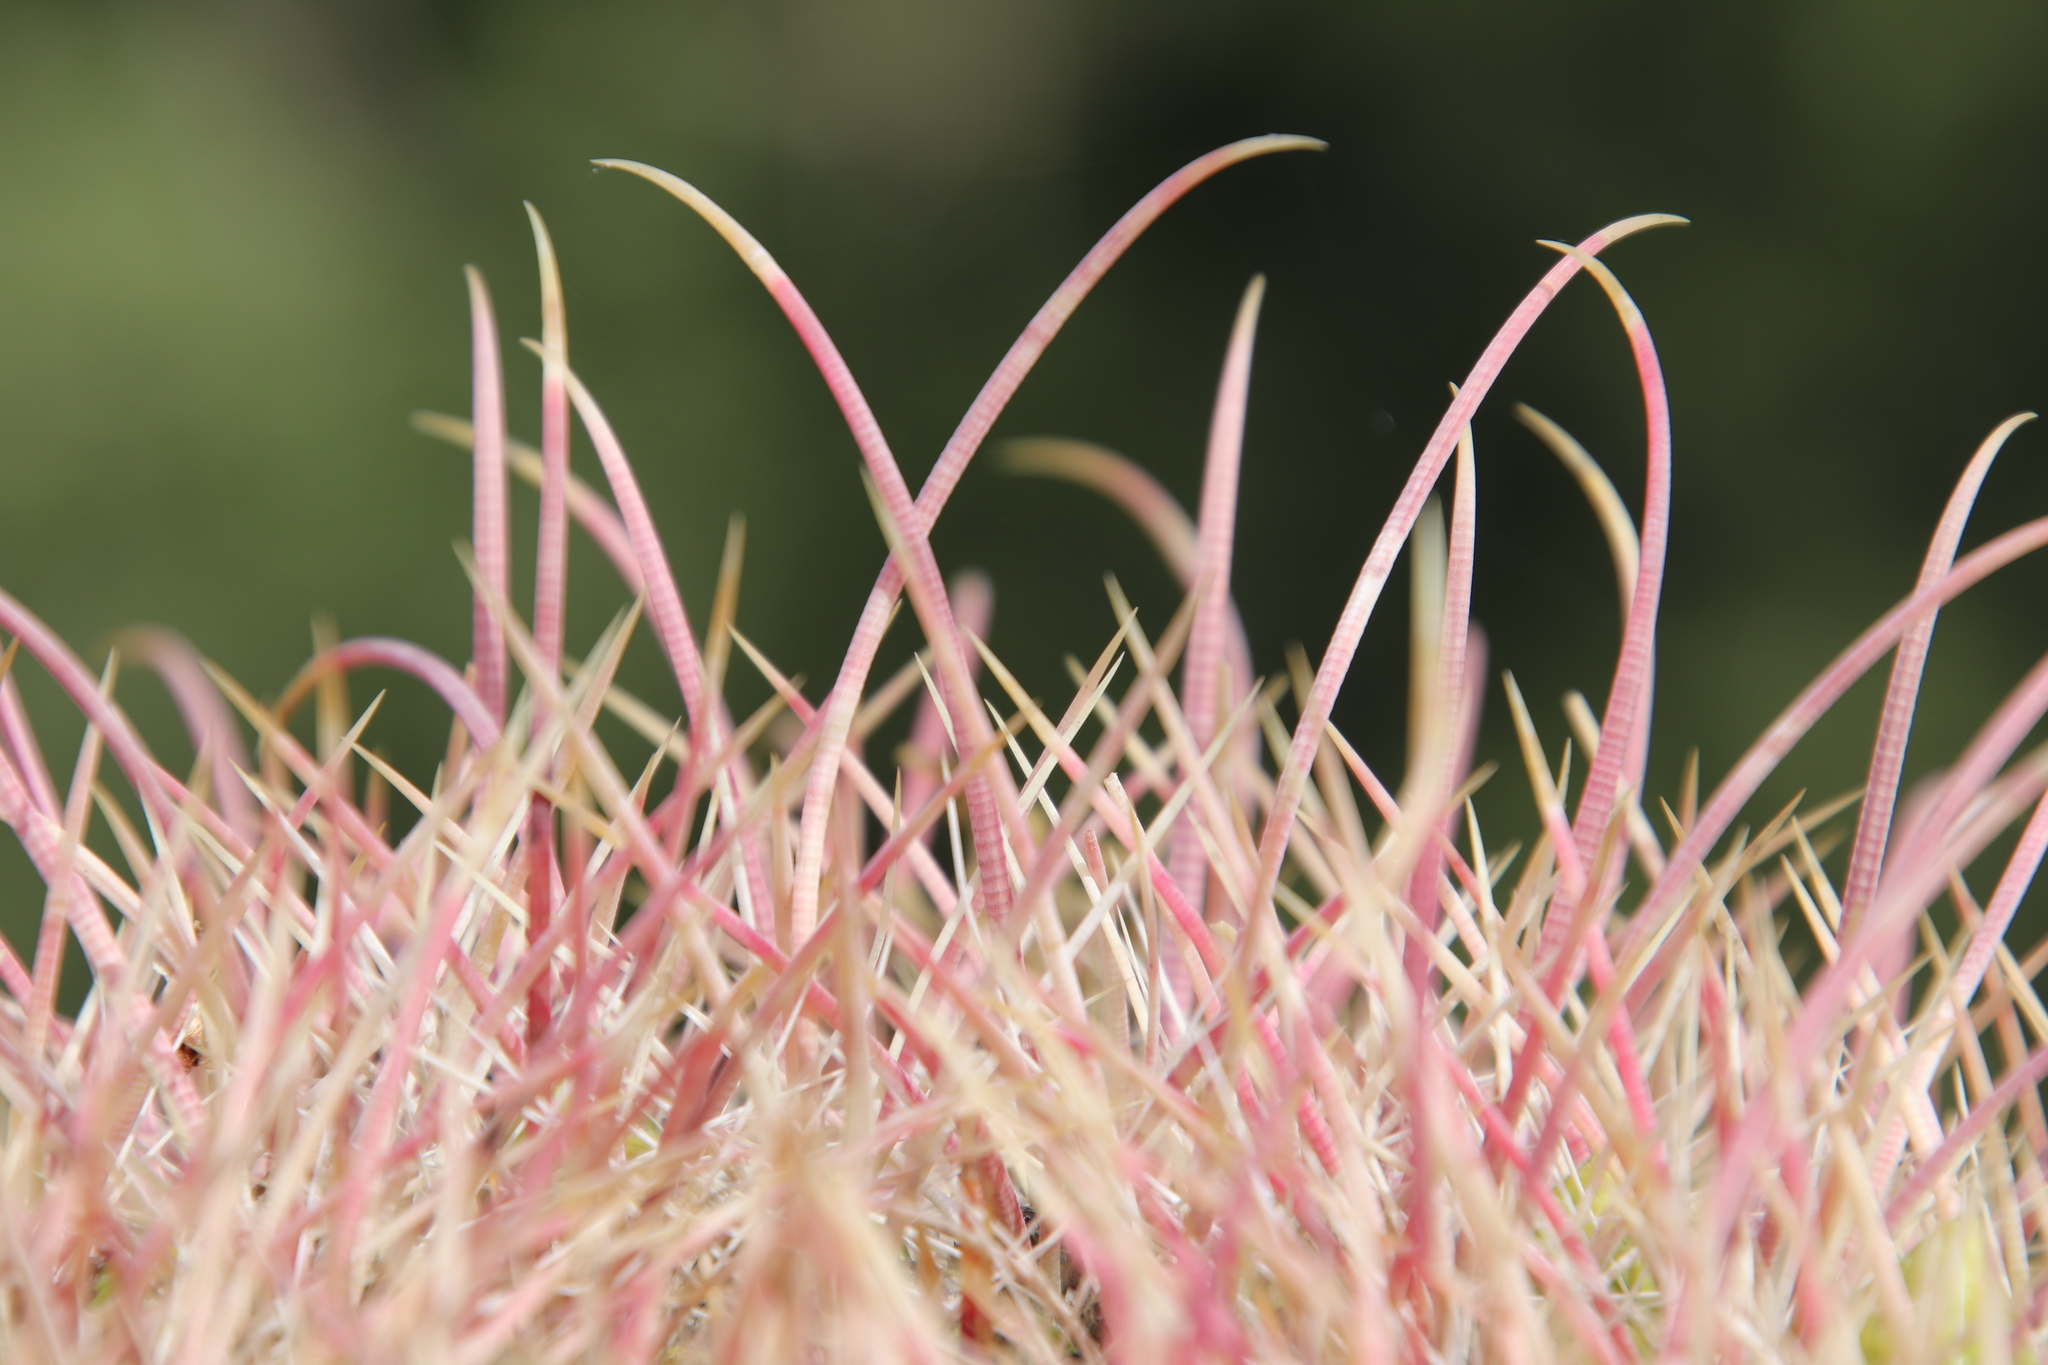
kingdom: Plantae
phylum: Tracheophyta
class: Magnoliopsida
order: Caryophyllales
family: Cactaceae
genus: Ferocactus
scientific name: Ferocactus cylindraceus
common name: California barrel cactus
